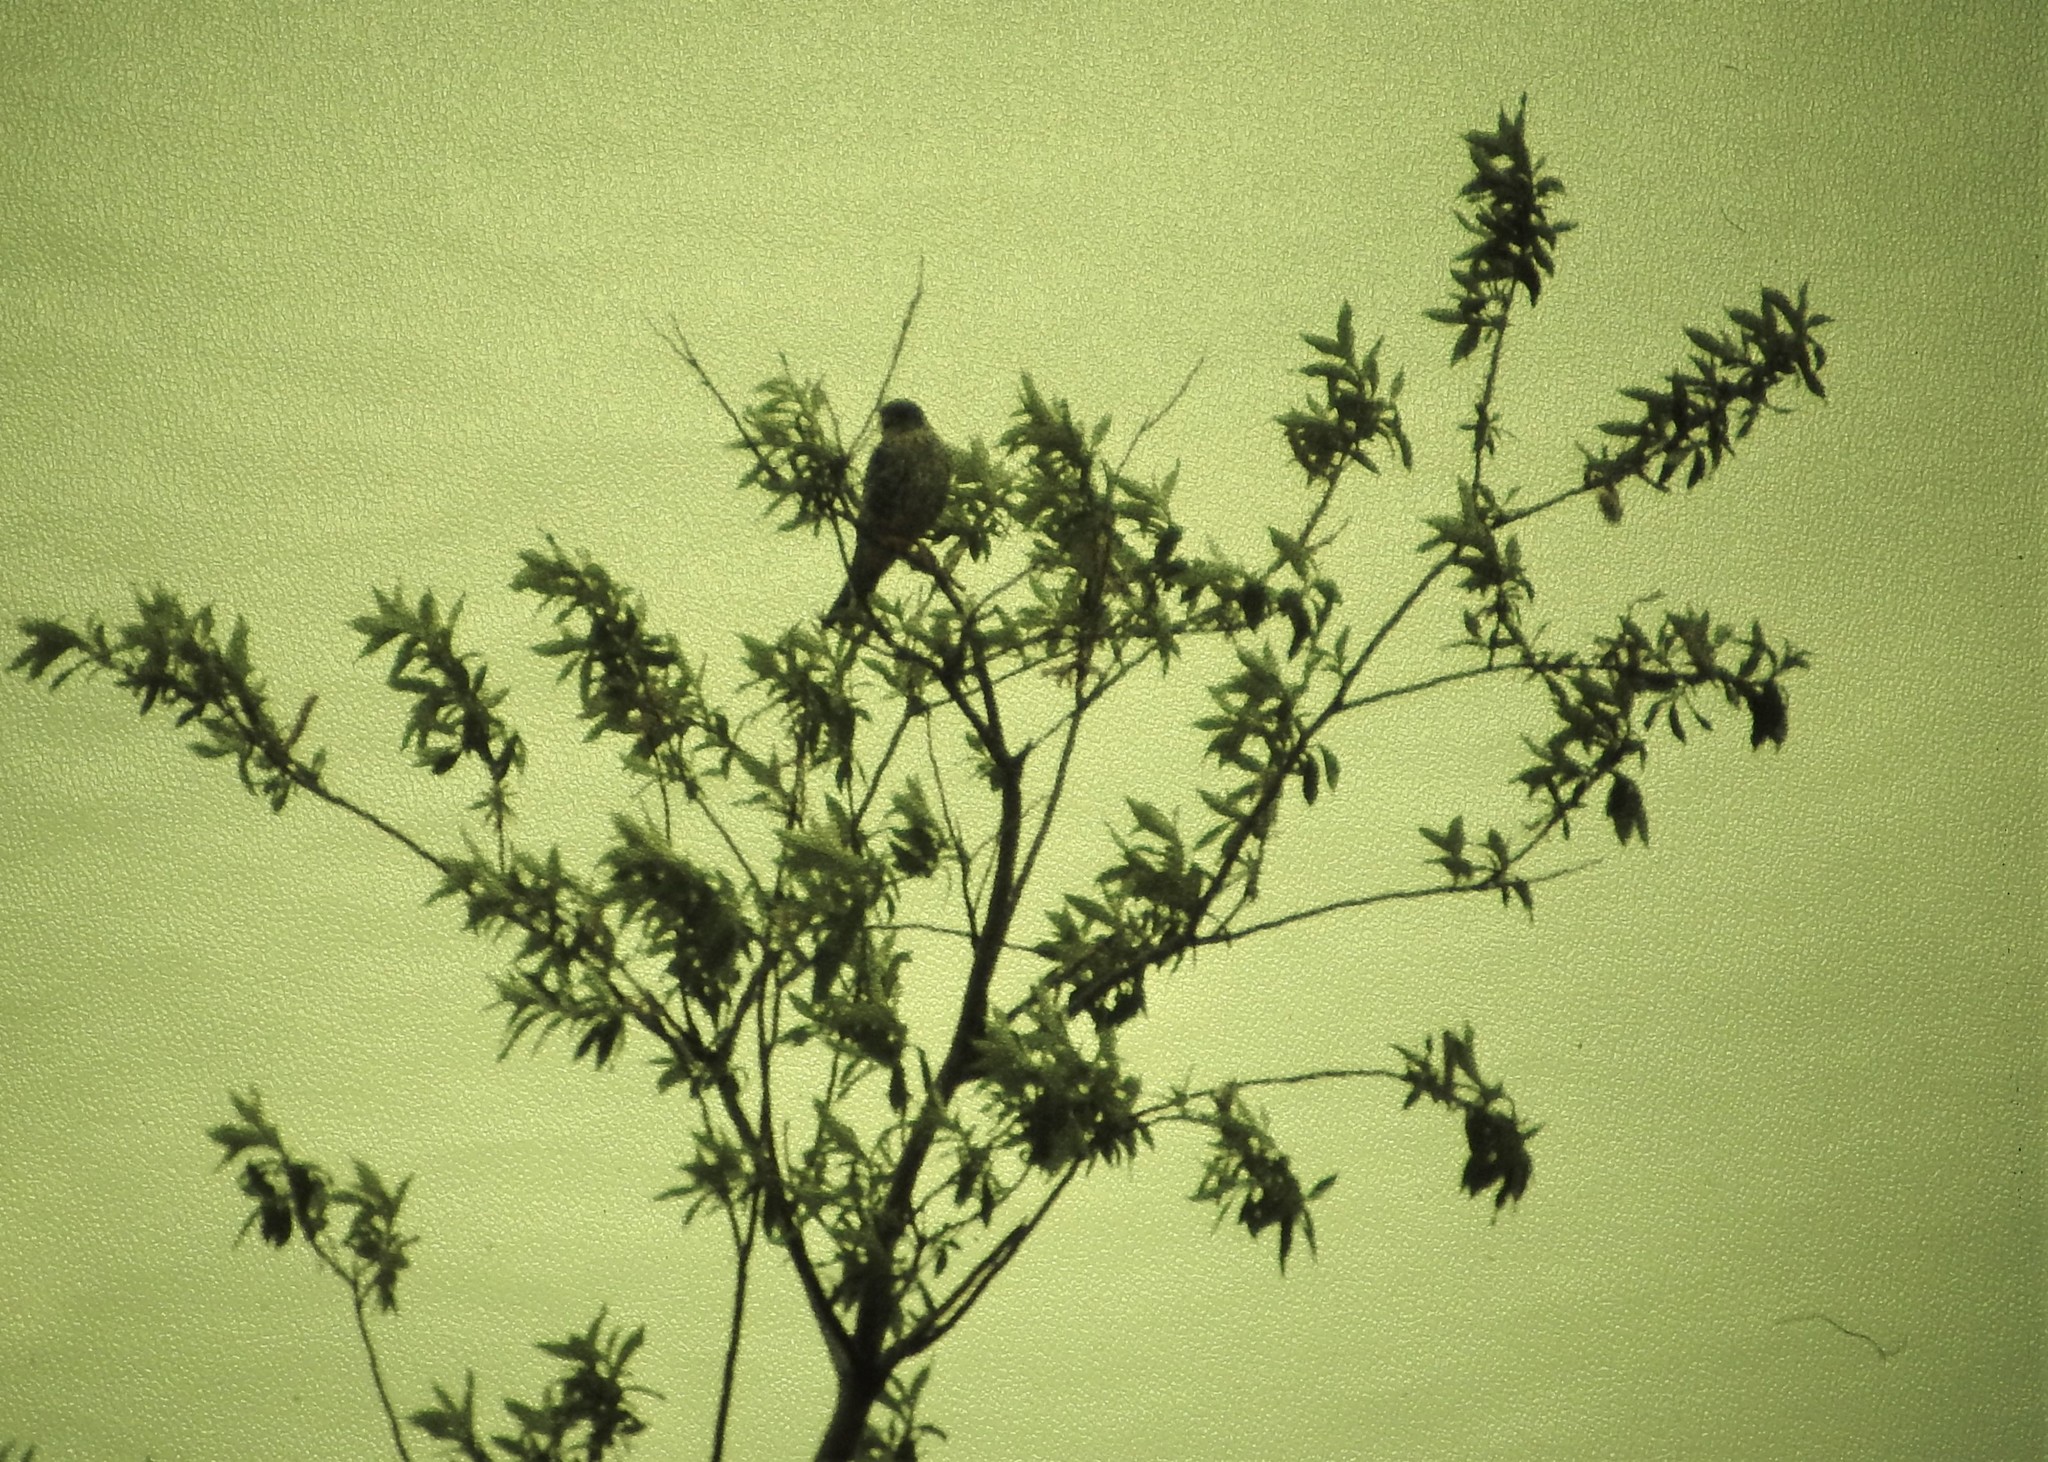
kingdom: Animalia
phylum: Chordata
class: Aves
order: Falconiformes
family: Falconidae
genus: Falco
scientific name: Falco columbarius
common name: Merlin
